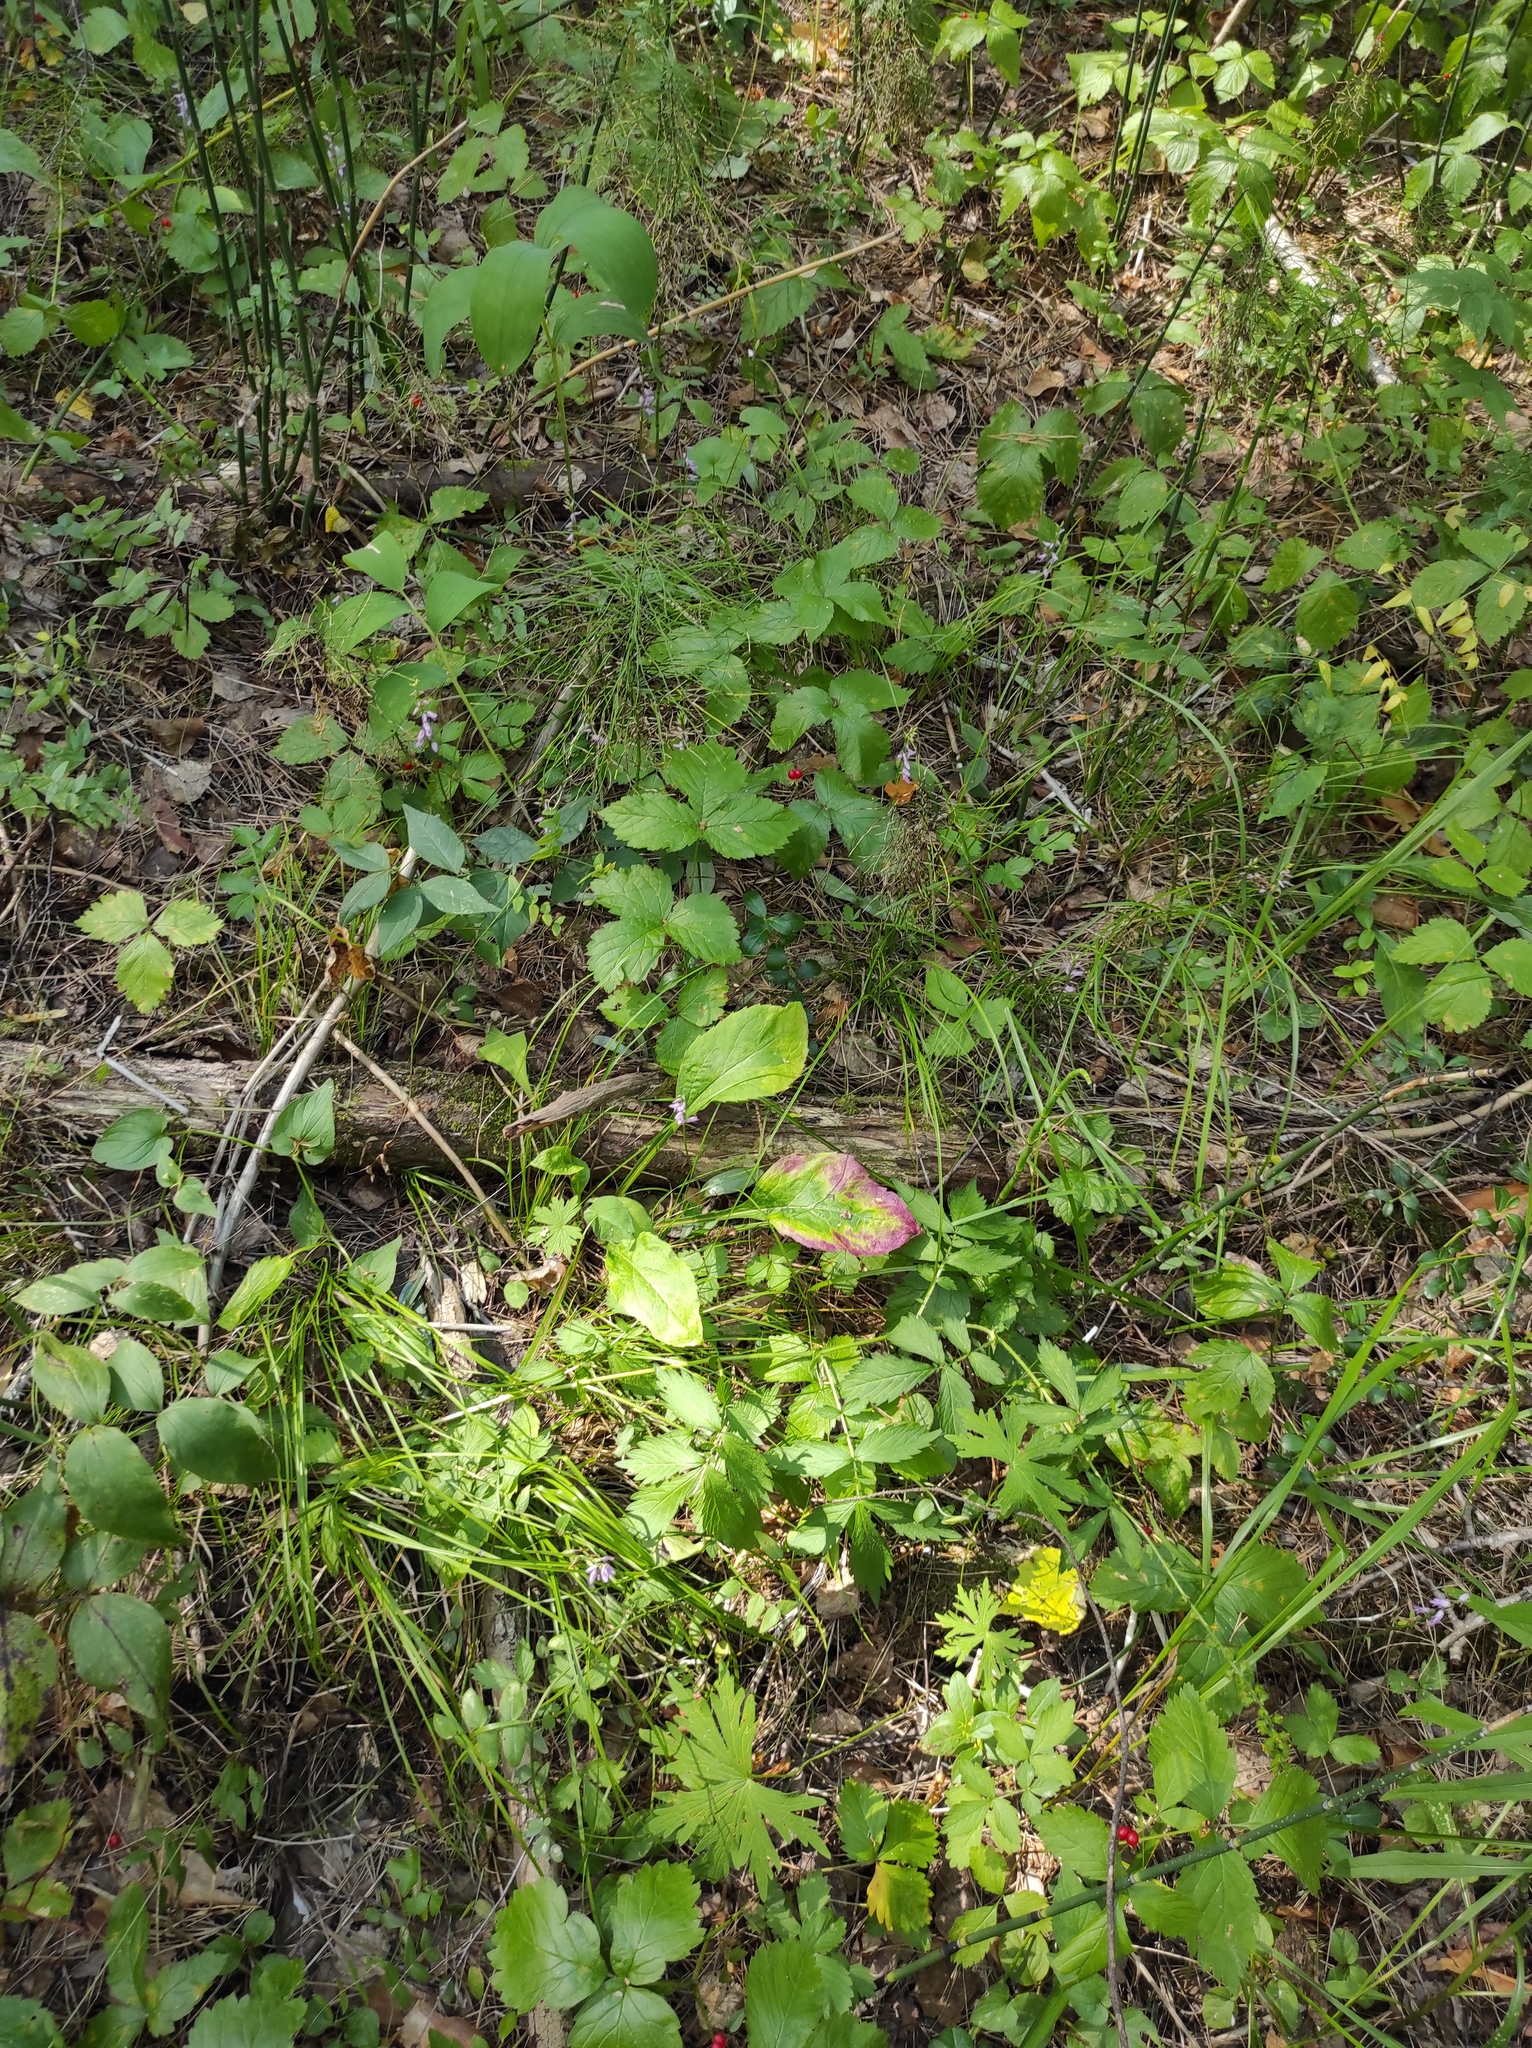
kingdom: Plantae
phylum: Tracheophyta
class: Liliopsida
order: Asparagales
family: Orchidaceae
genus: Hemipilia
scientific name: Hemipilia cucullata
